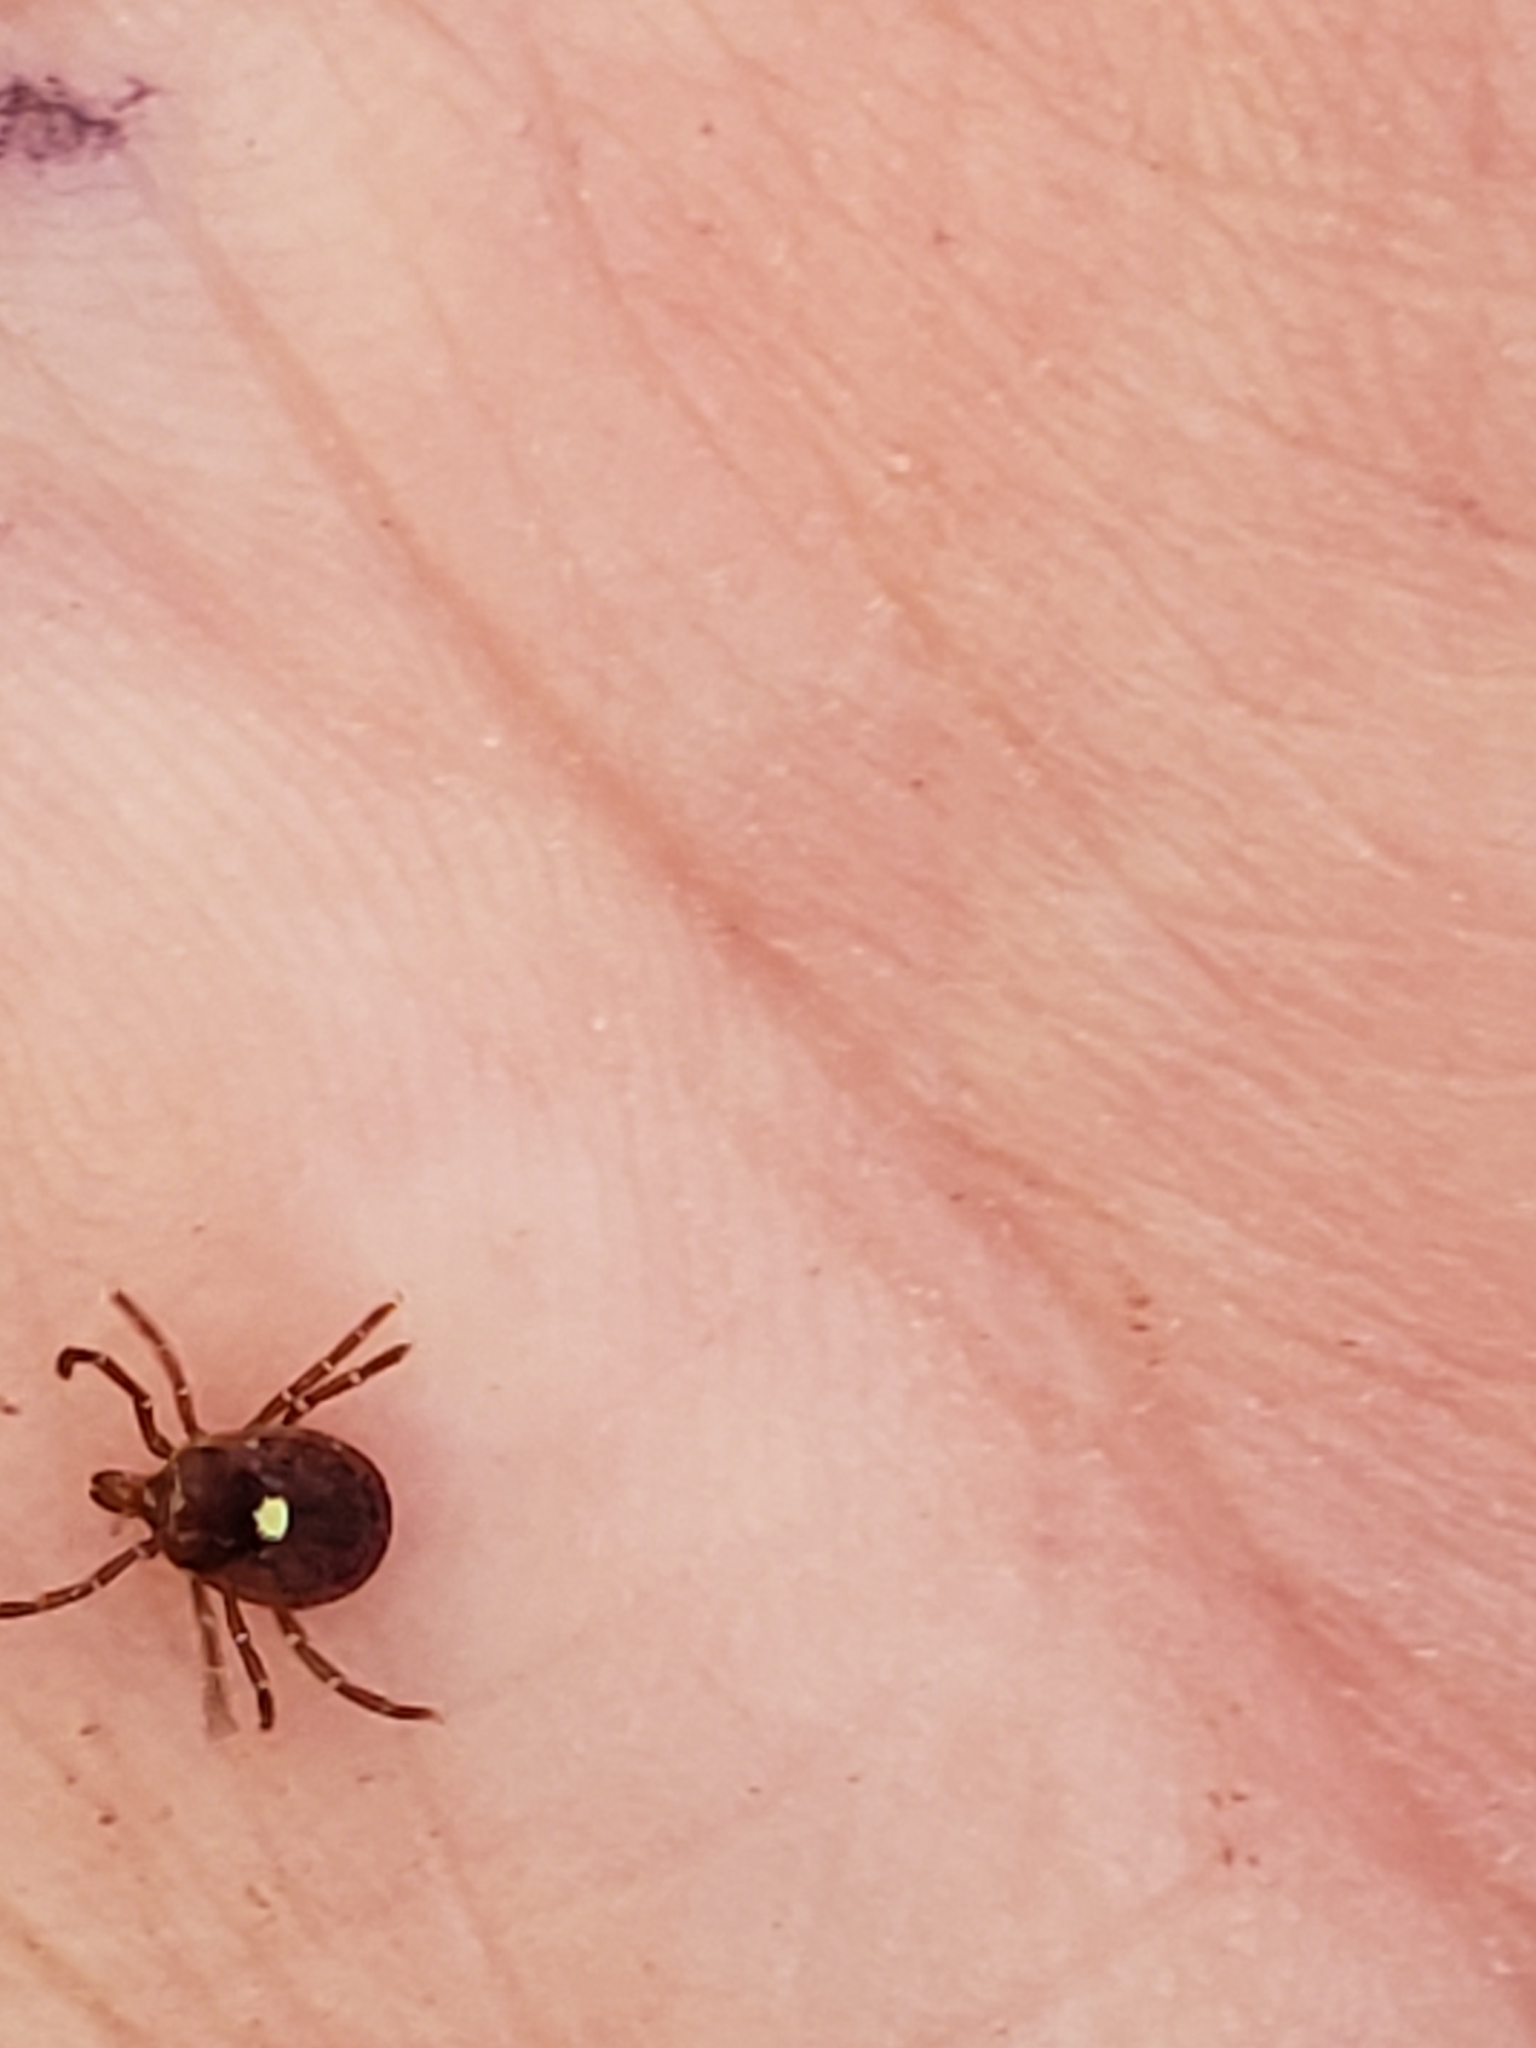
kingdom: Animalia
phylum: Arthropoda
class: Arachnida
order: Ixodida
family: Ixodidae
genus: Amblyomma
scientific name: Amblyomma americanum
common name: Lone star tick
